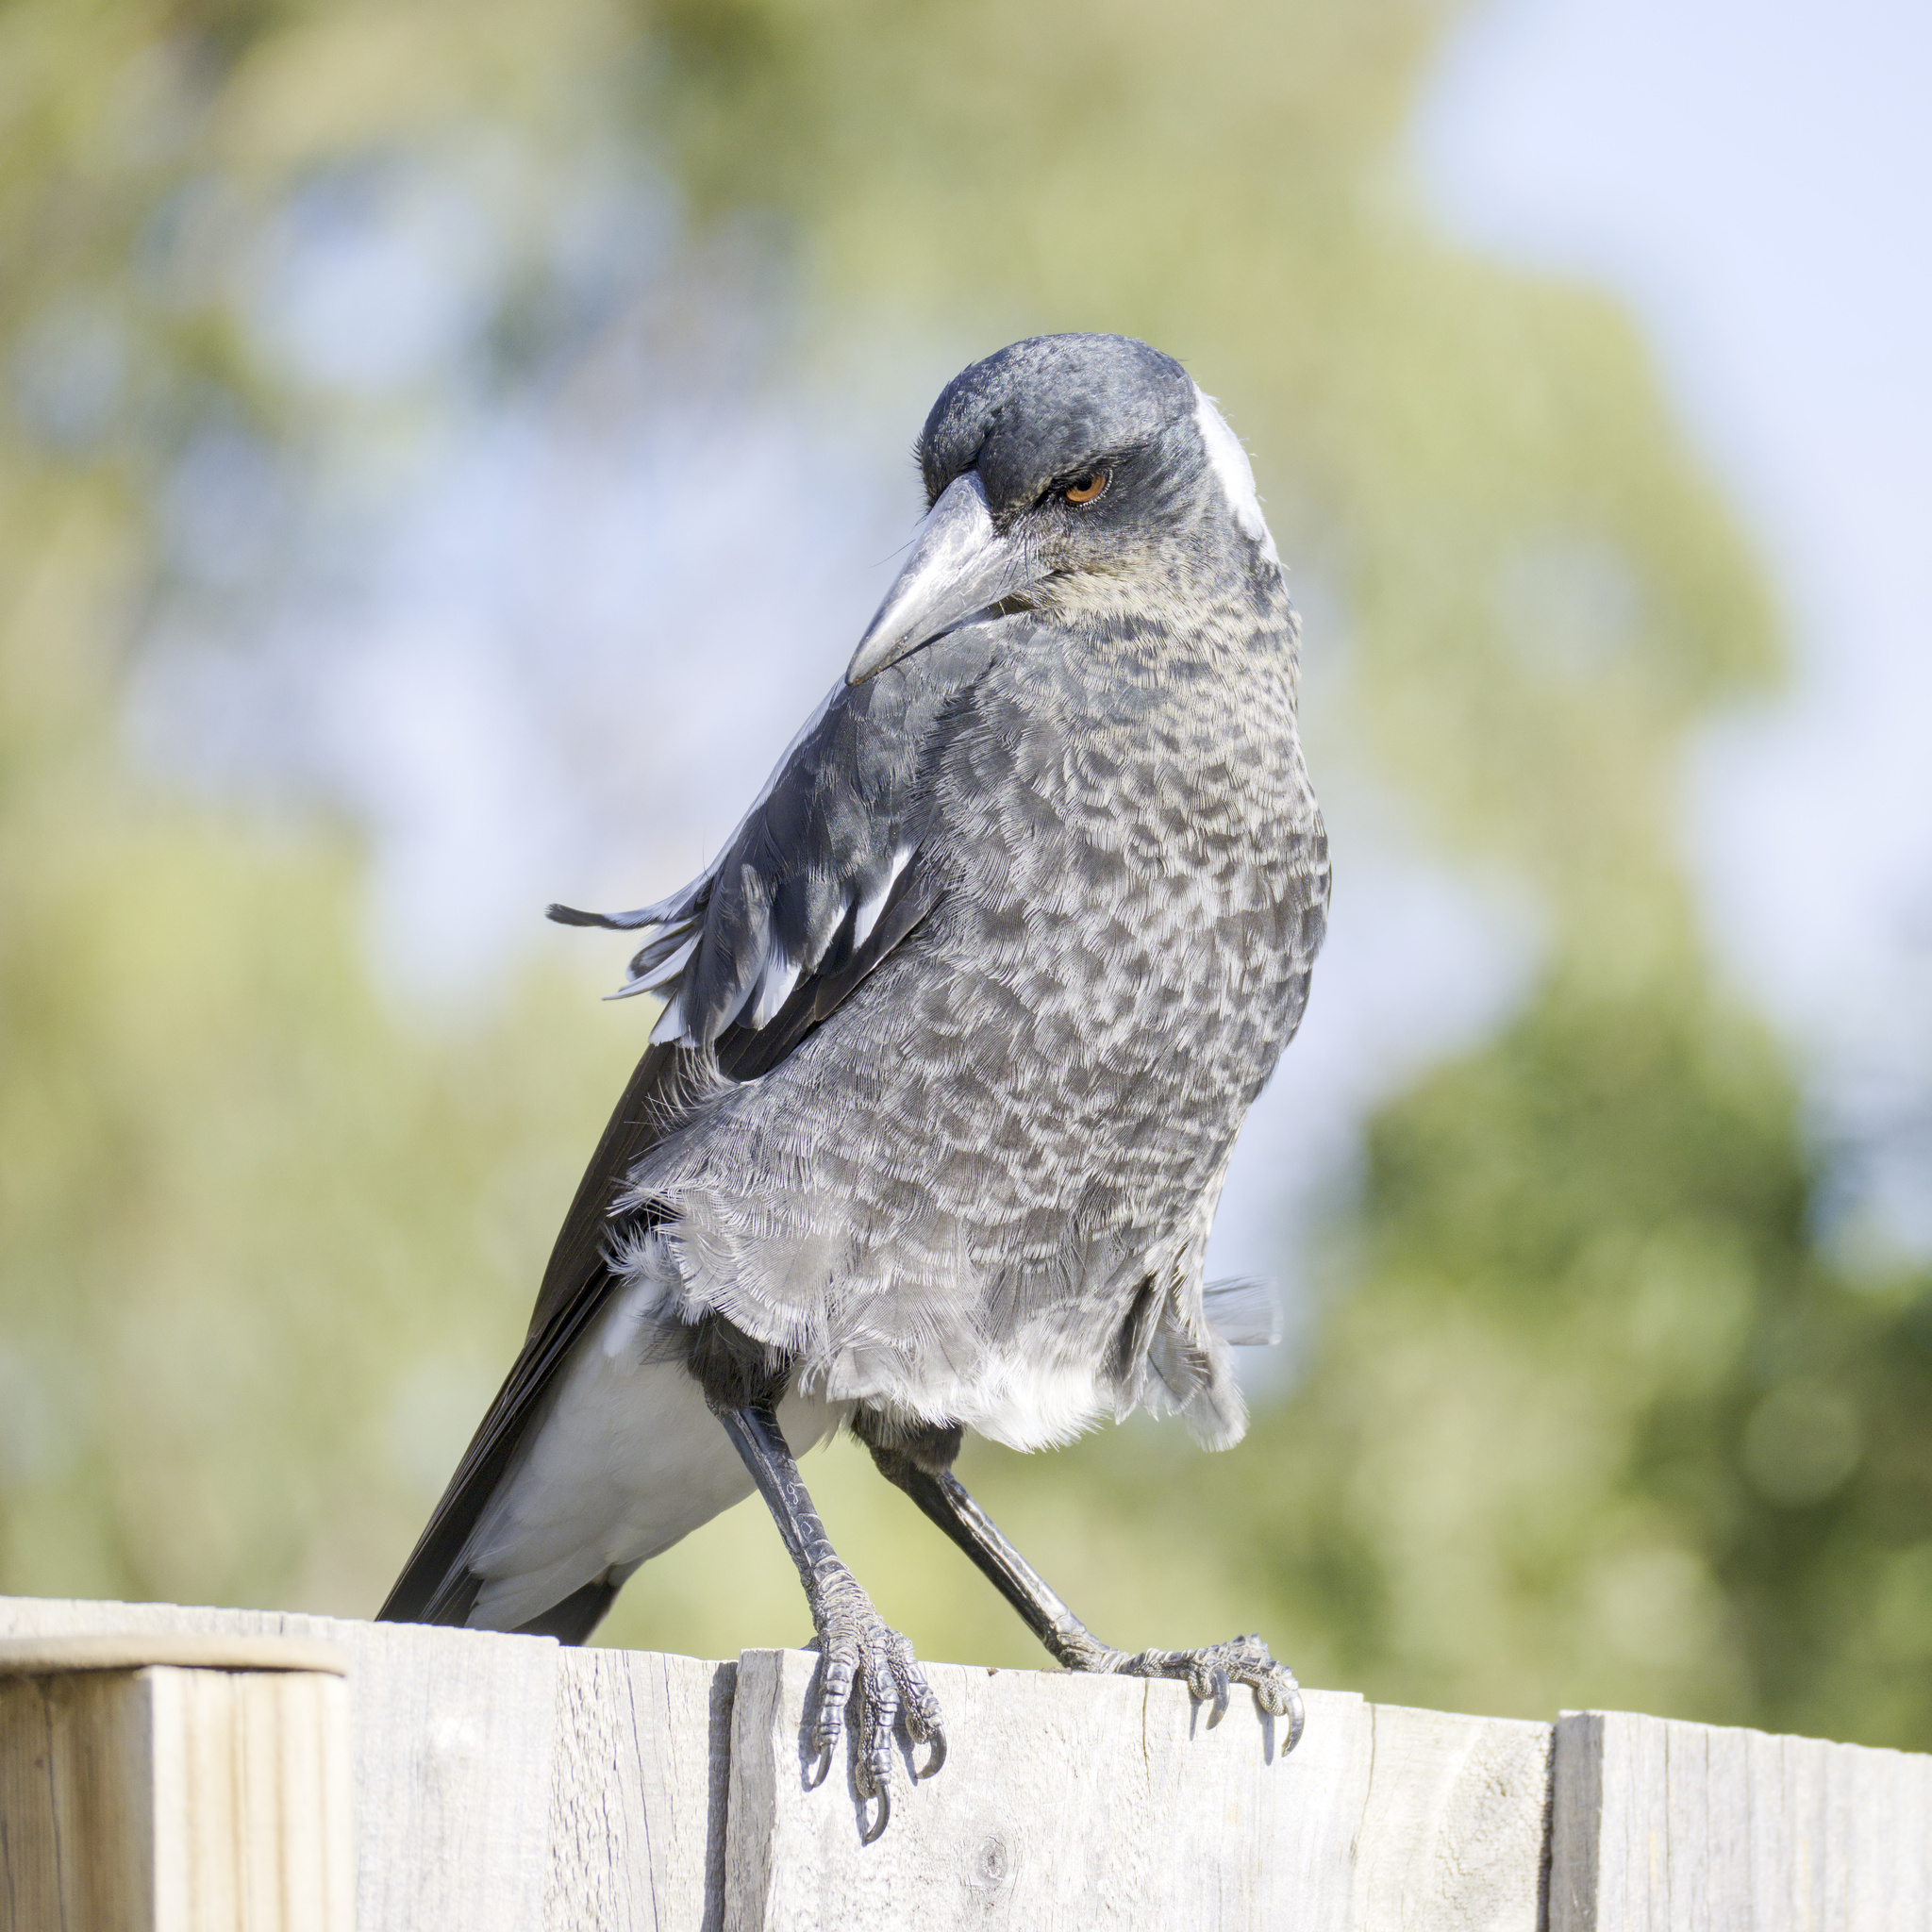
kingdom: Animalia
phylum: Chordata
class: Aves
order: Passeriformes
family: Cracticidae
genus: Gymnorhina
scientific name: Gymnorhina tibicen
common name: Australian magpie
